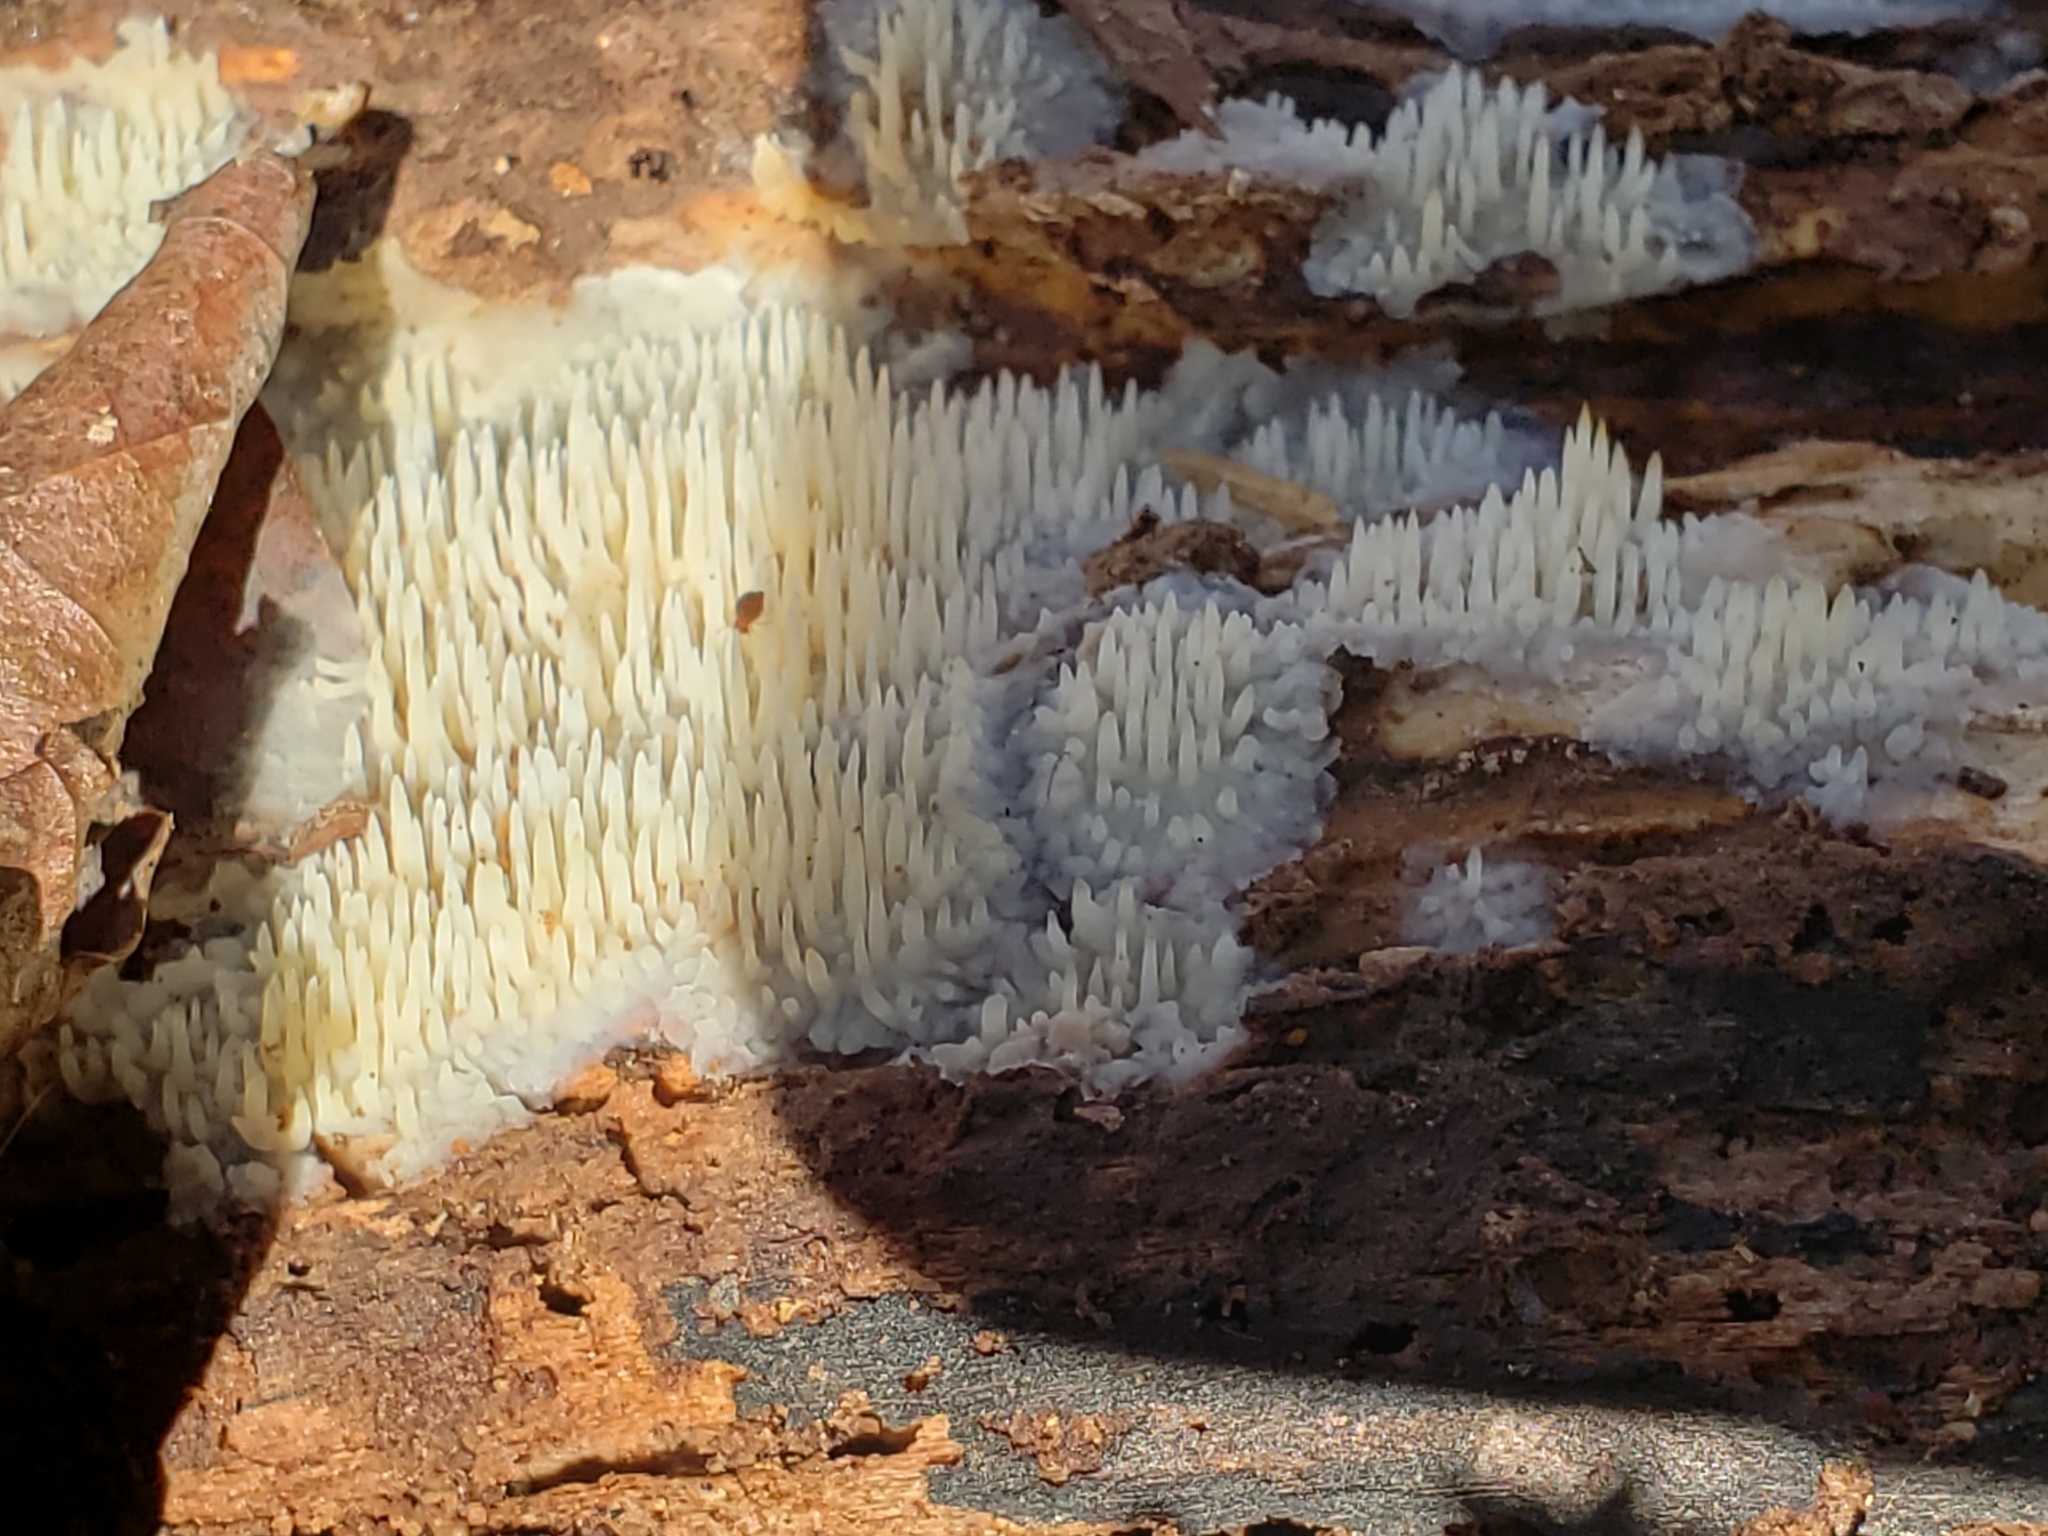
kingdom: Fungi
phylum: Basidiomycota
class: Agaricomycetes
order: Agaricales
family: Radulomycetaceae
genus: Radulomyces
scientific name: Radulomyces copelandii
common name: Asian beauty
